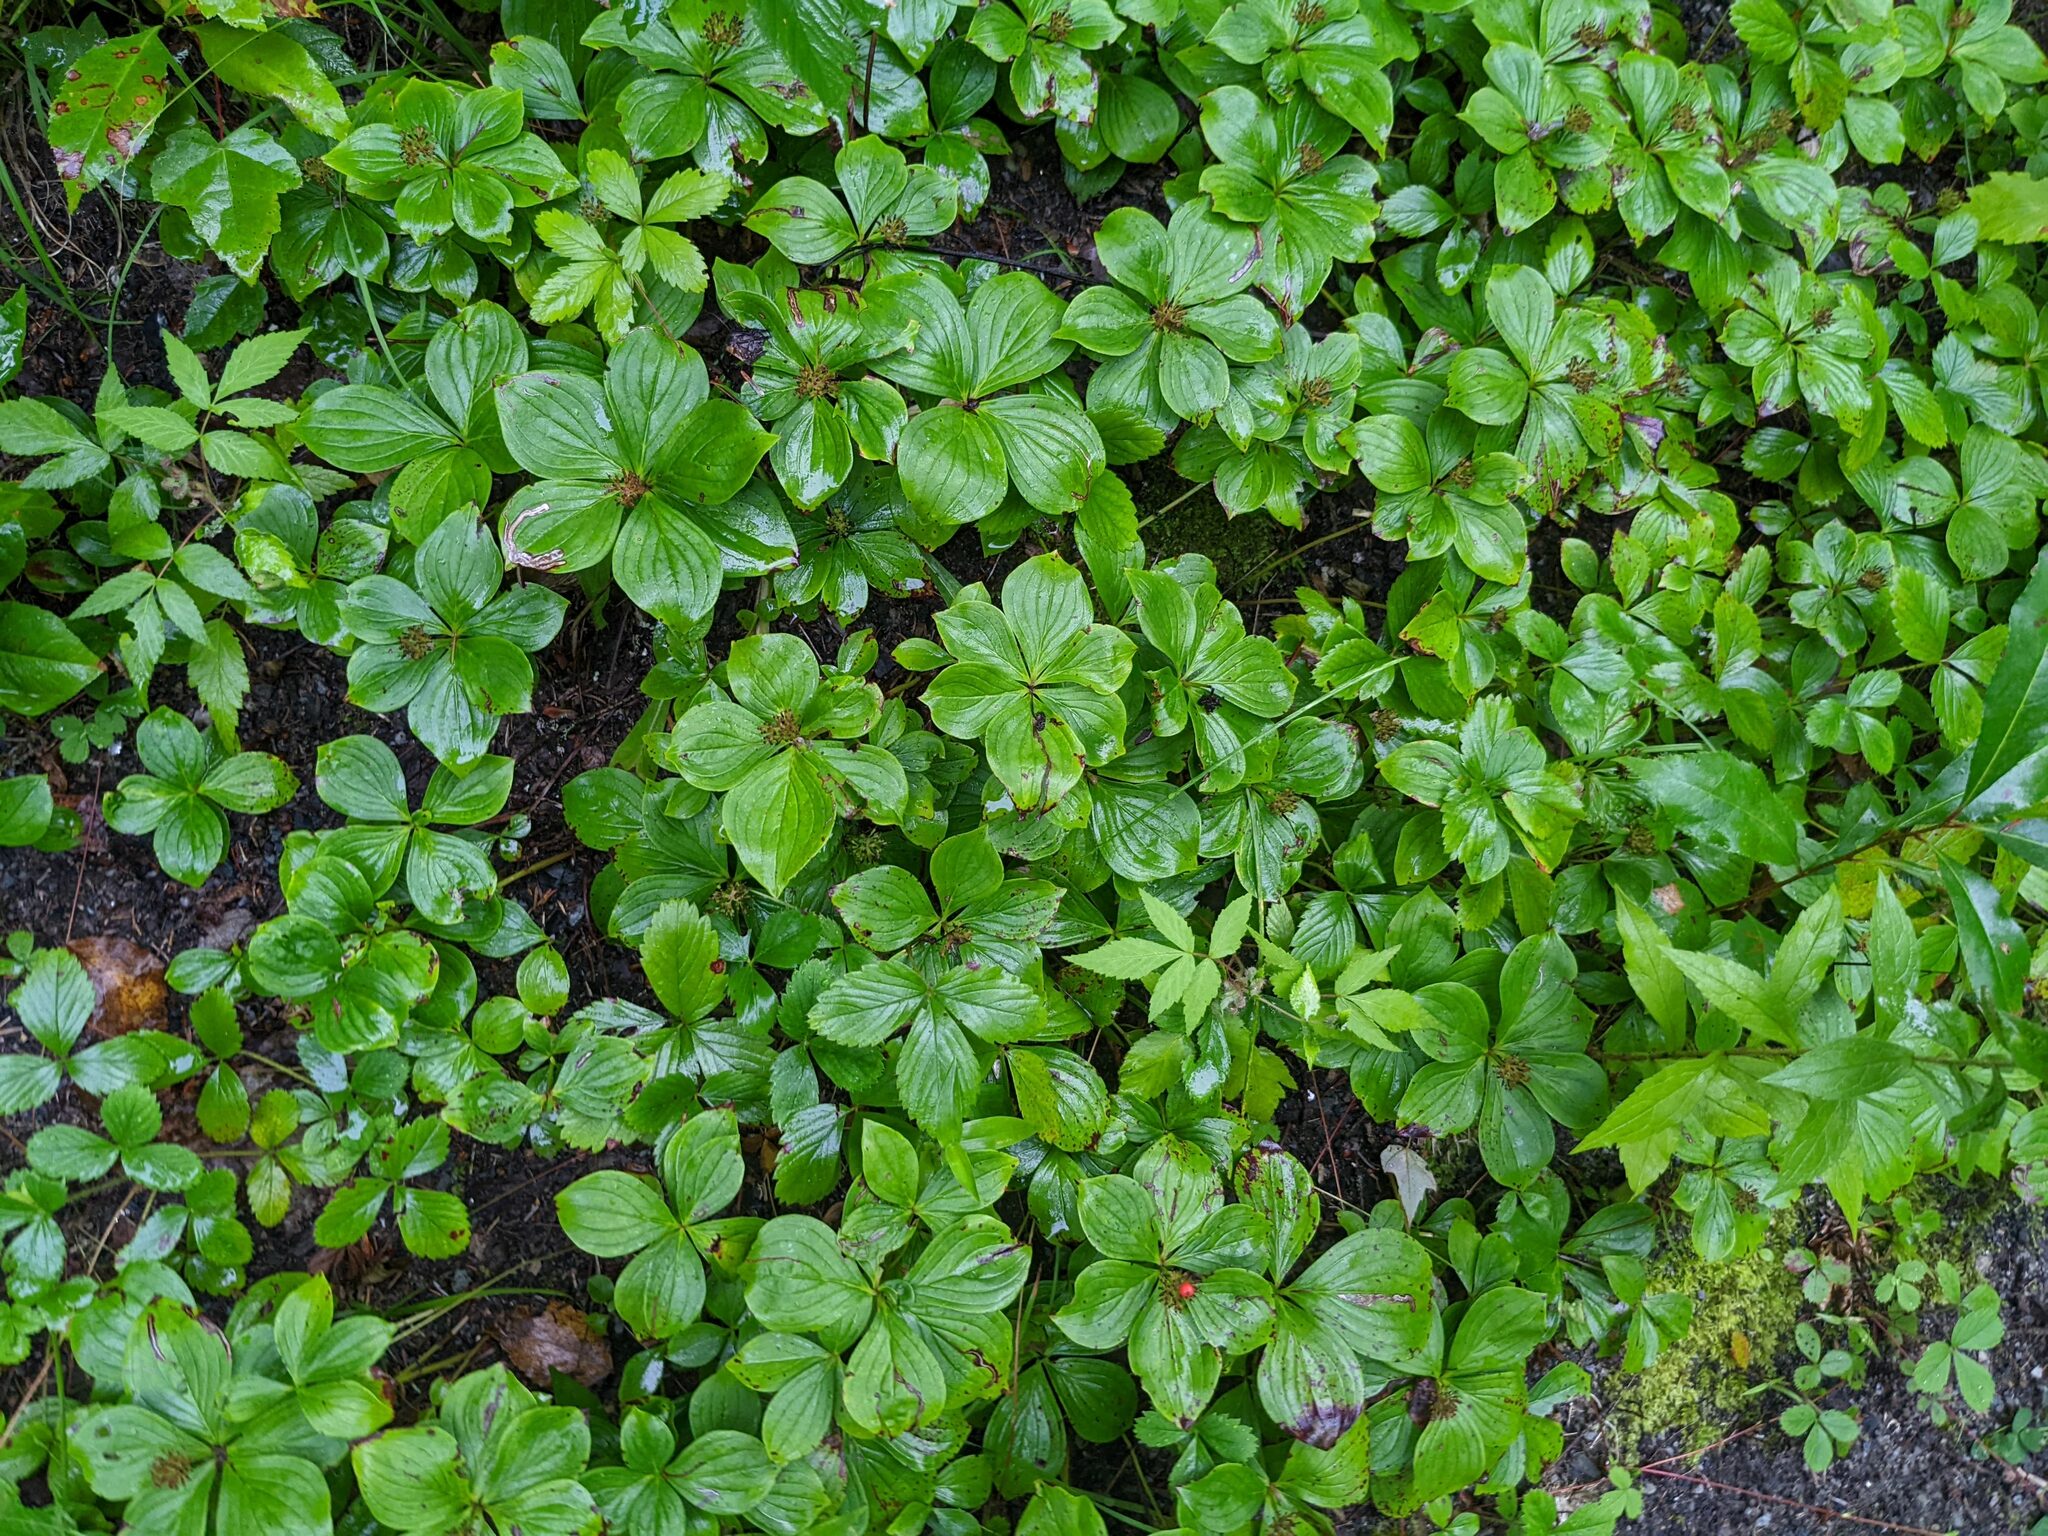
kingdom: Plantae
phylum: Tracheophyta
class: Magnoliopsida
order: Cornales
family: Cornaceae
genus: Cornus
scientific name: Cornus canadensis
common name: Creeping dogwood
